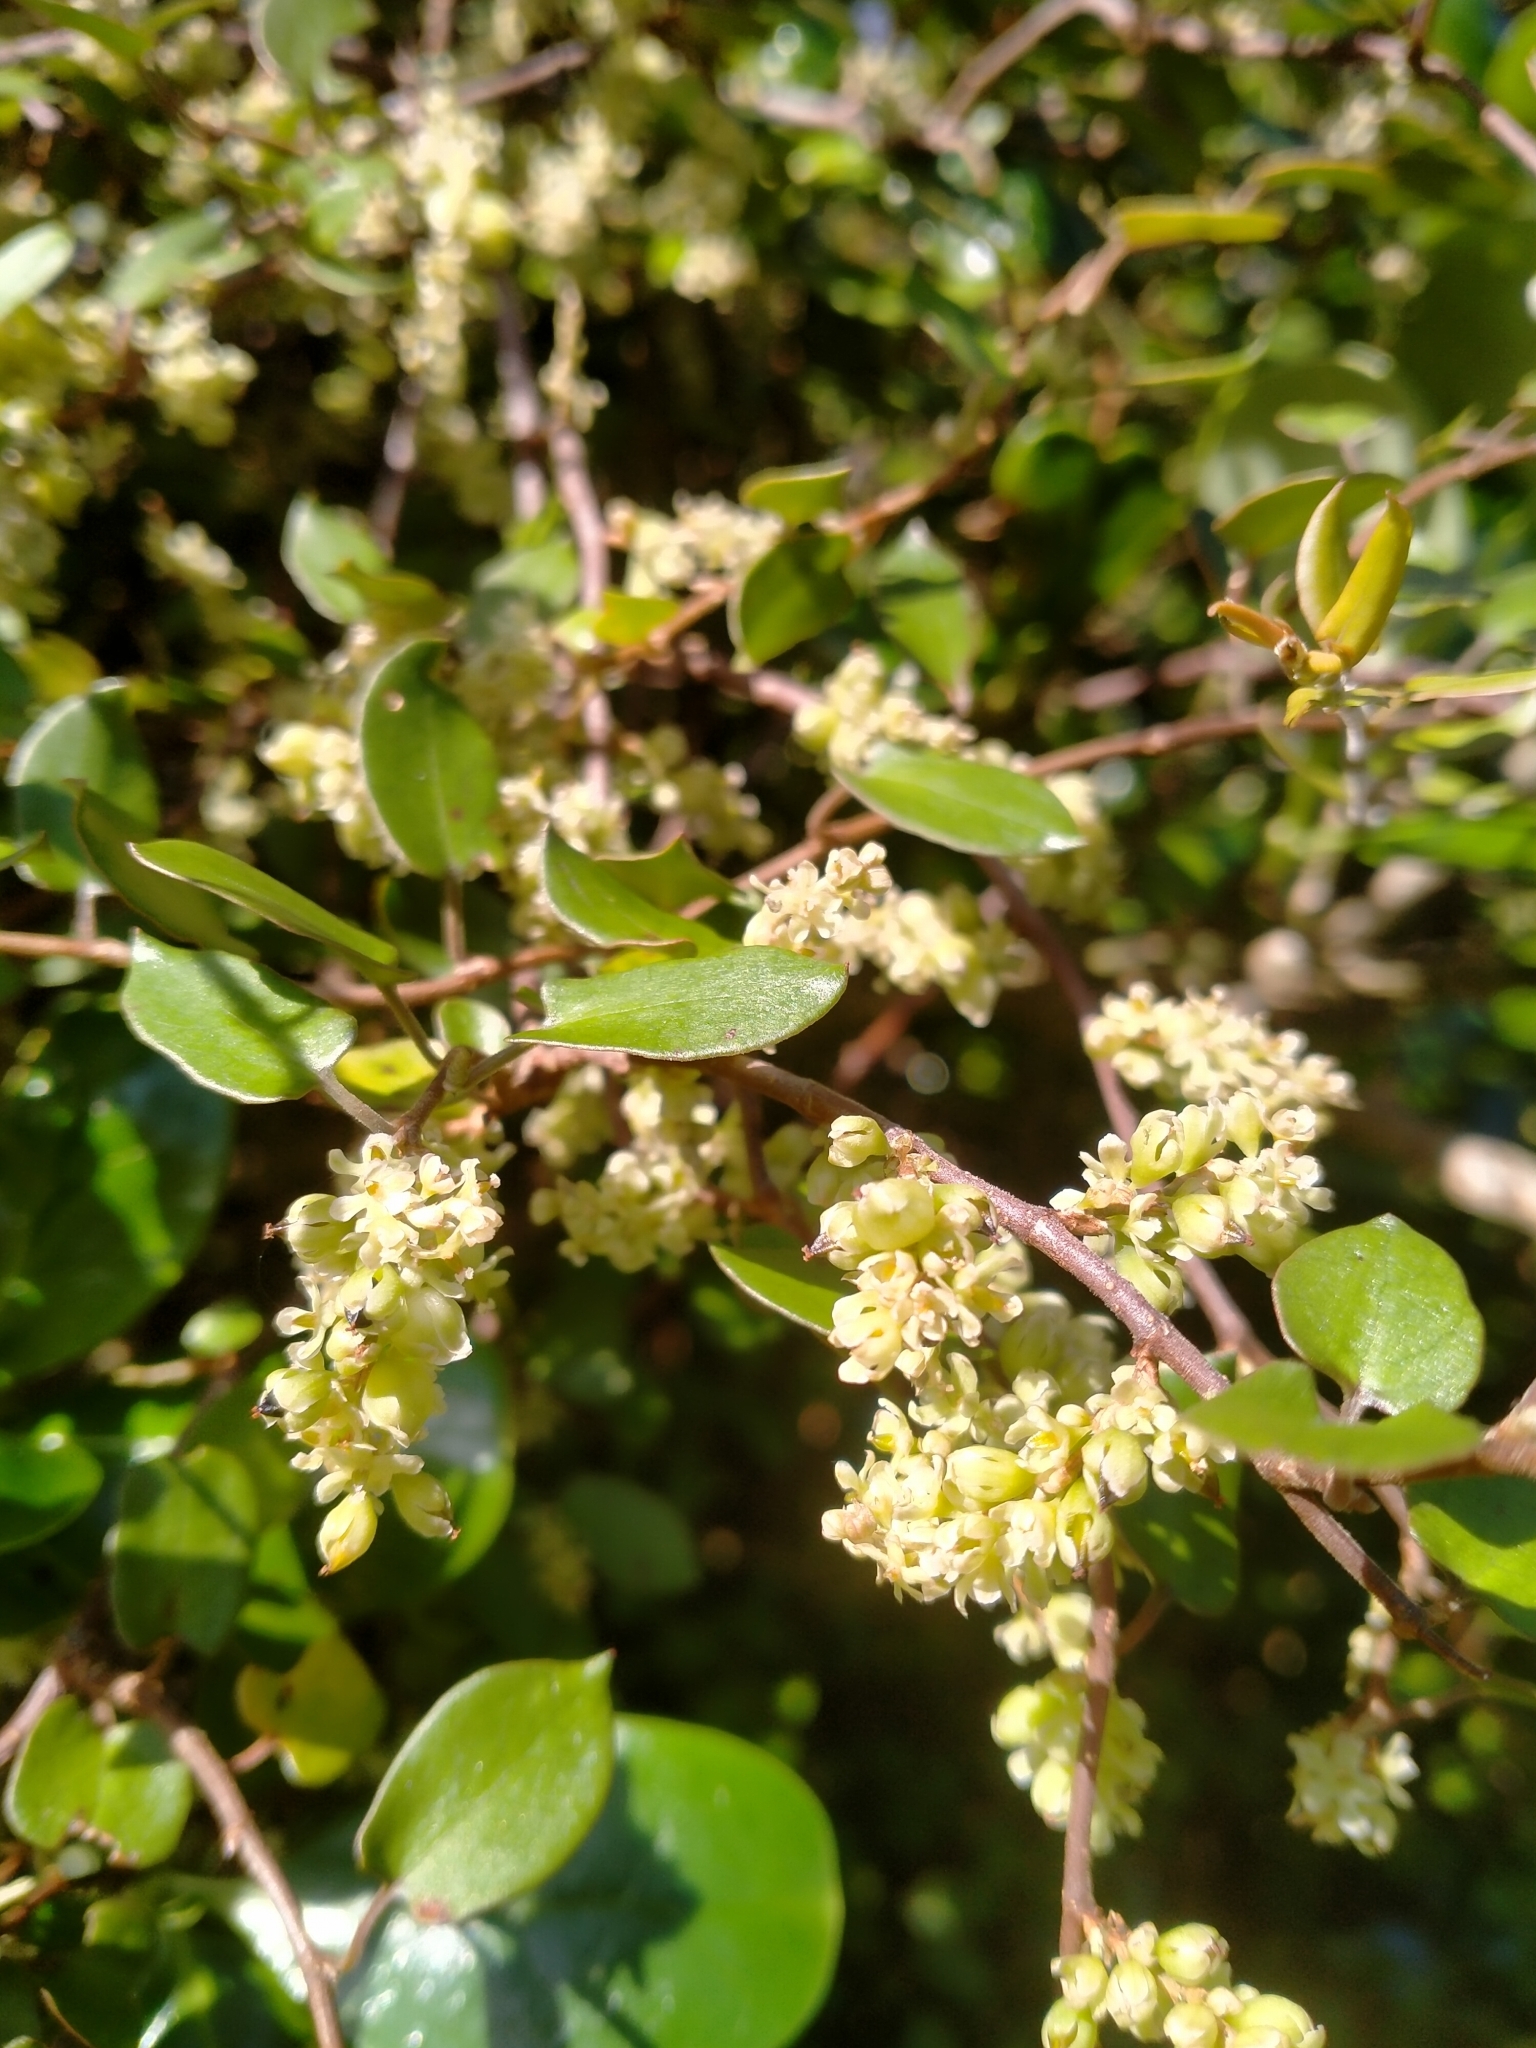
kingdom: Plantae
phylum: Tracheophyta
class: Magnoliopsida
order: Caryophyllales
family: Polygonaceae
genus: Muehlenbeckia
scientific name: Muehlenbeckia australis
